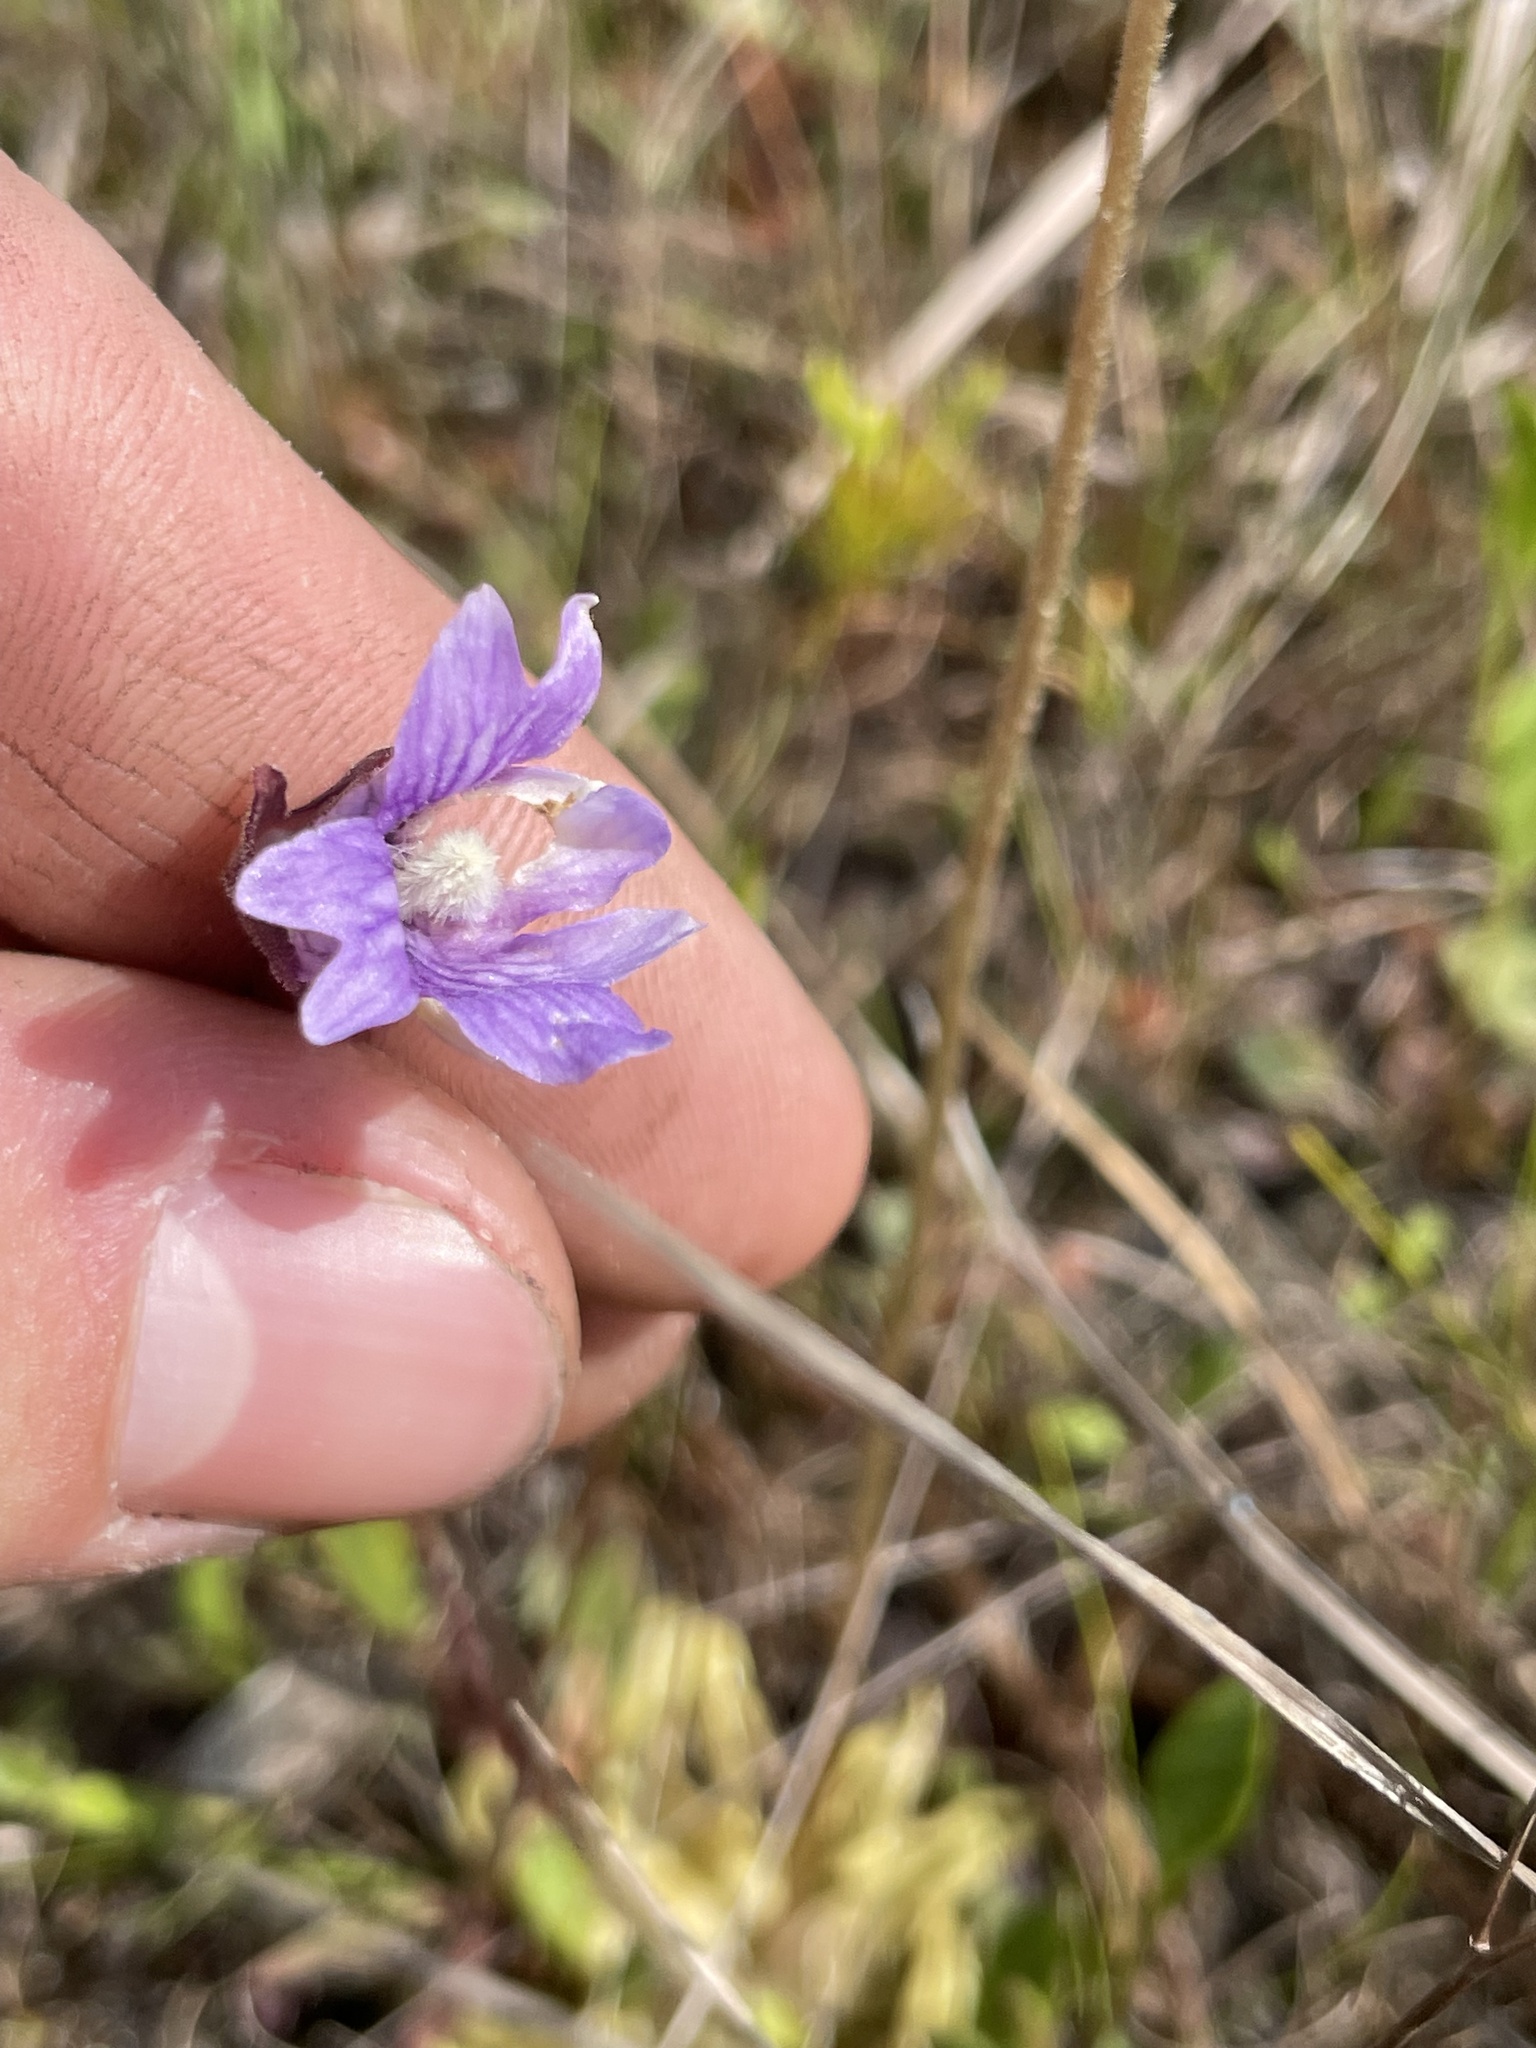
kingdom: Plantae
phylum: Tracheophyta
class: Magnoliopsida
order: Lamiales
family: Lentibulariaceae
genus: Pinguicula
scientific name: Pinguicula caerulea
